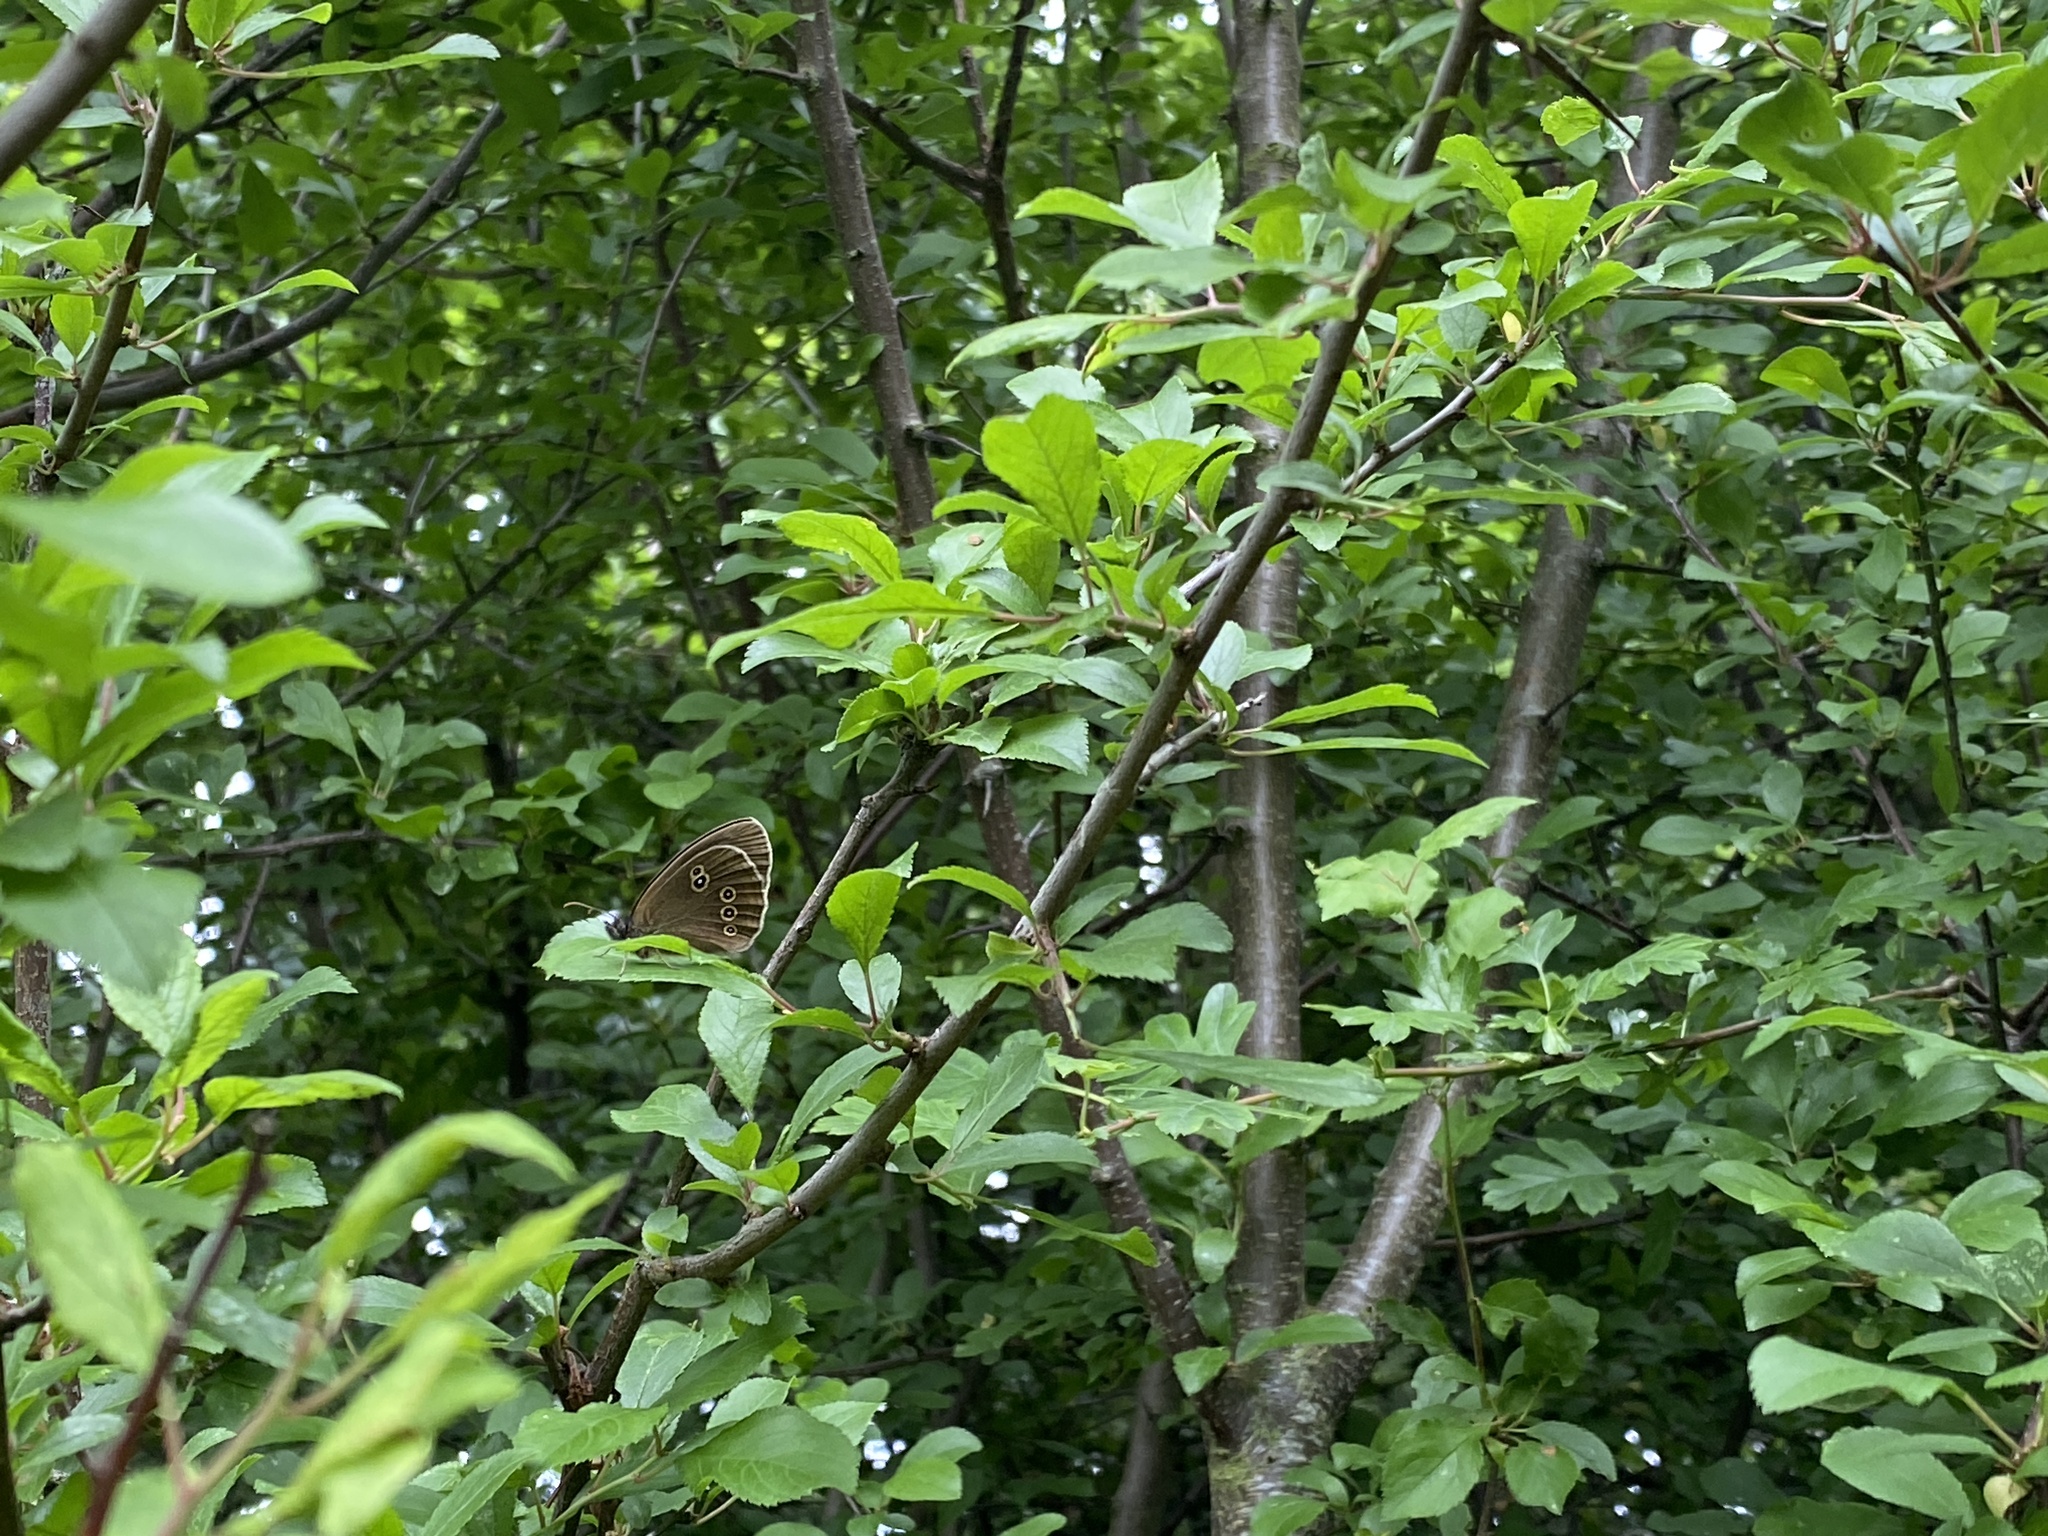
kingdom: Animalia
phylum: Arthropoda
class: Insecta
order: Lepidoptera
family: Nymphalidae
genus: Aphantopus
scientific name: Aphantopus hyperantus
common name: Ringlet
